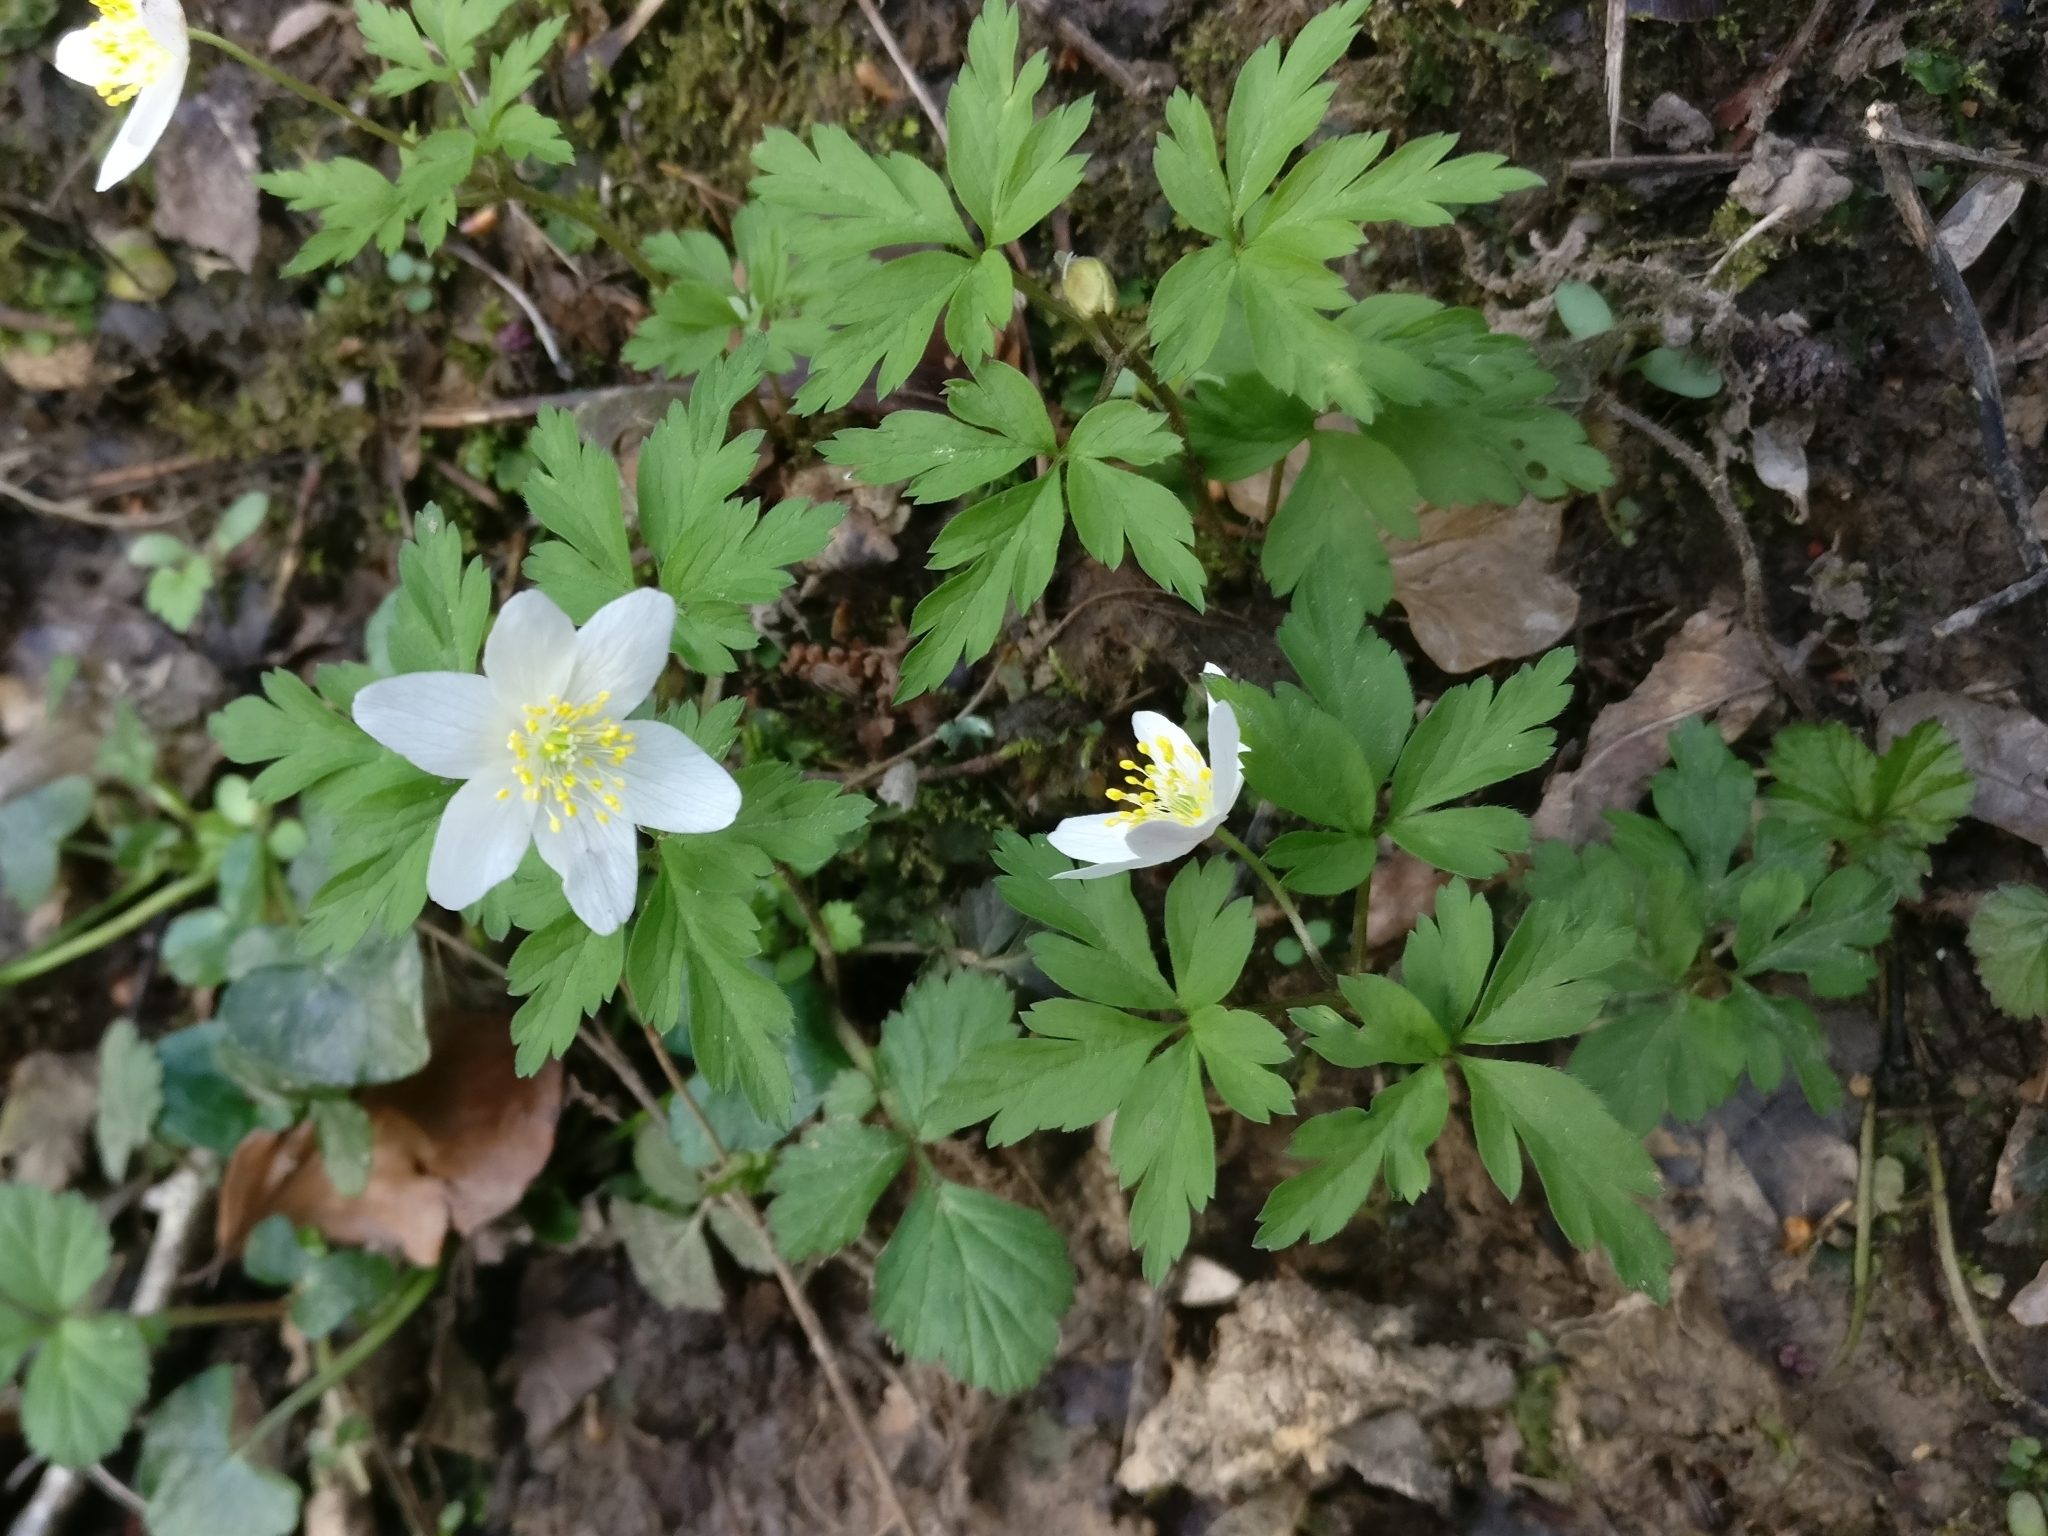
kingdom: Plantae
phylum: Tracheophyta
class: Magnoliopsida
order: Ranunculales
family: Ranunculaceae
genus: Anemone
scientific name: Anemone nemorosa
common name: Wood anemone
